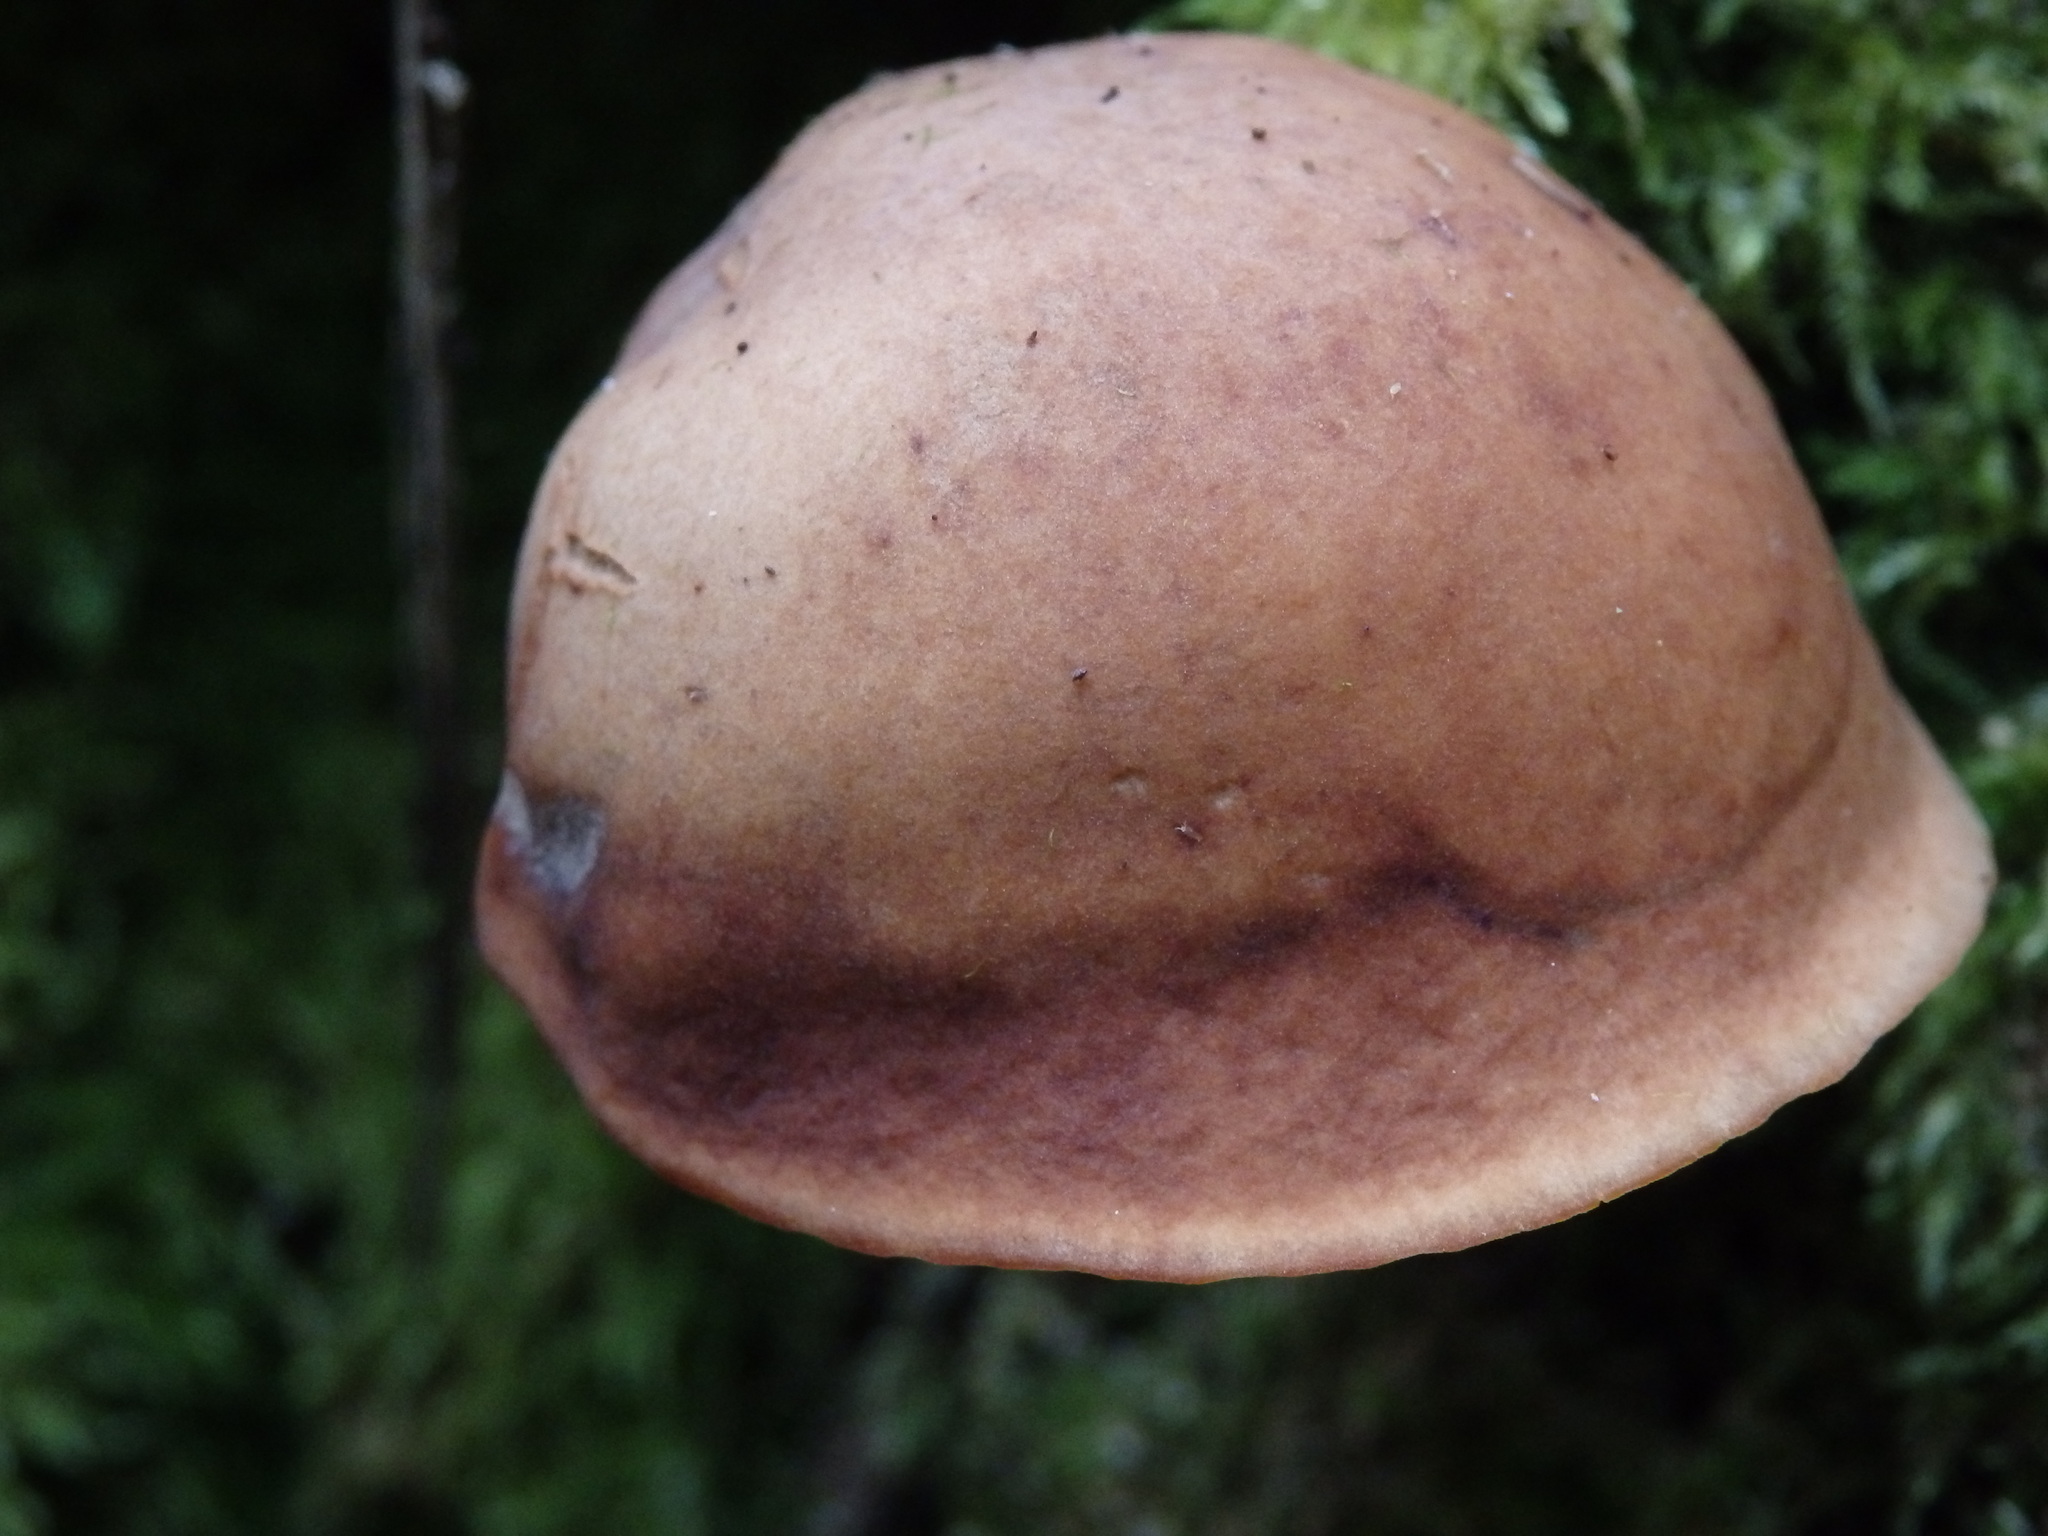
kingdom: Fungi
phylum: Basidiomycota
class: Agaricomycetes
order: Agaricales
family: Omphalotaceae
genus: Gymnopus
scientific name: Gymnopus fusipes
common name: Spindle shank
